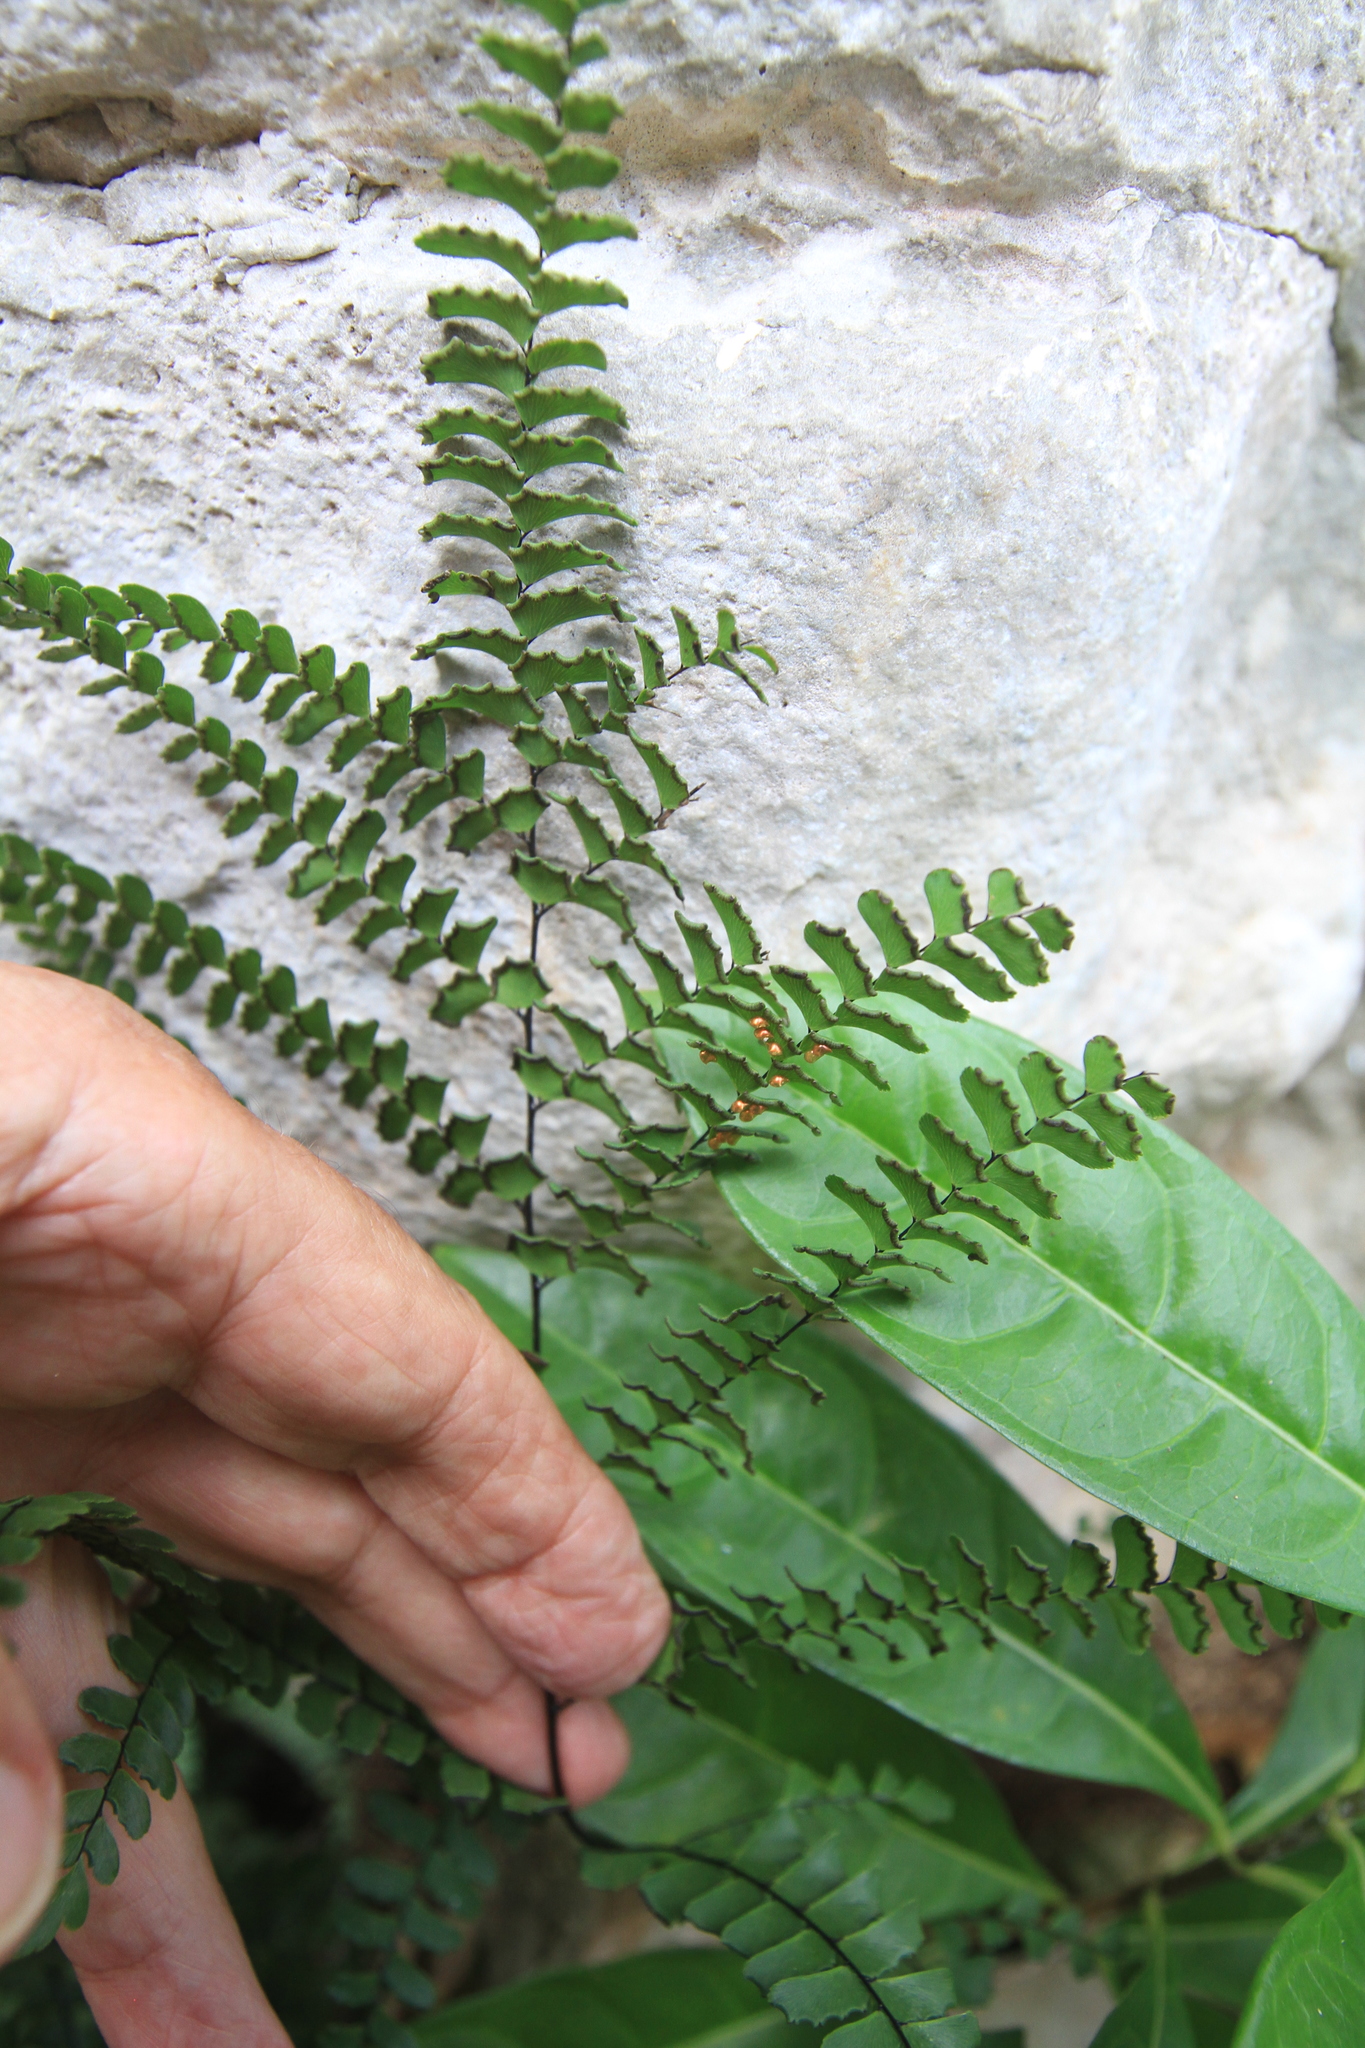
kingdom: Plantae
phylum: Tracheophyta
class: Polypodiopsida
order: Polypodiales
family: Pteridaceae
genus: Adiantum
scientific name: Adiantum pyramidale
